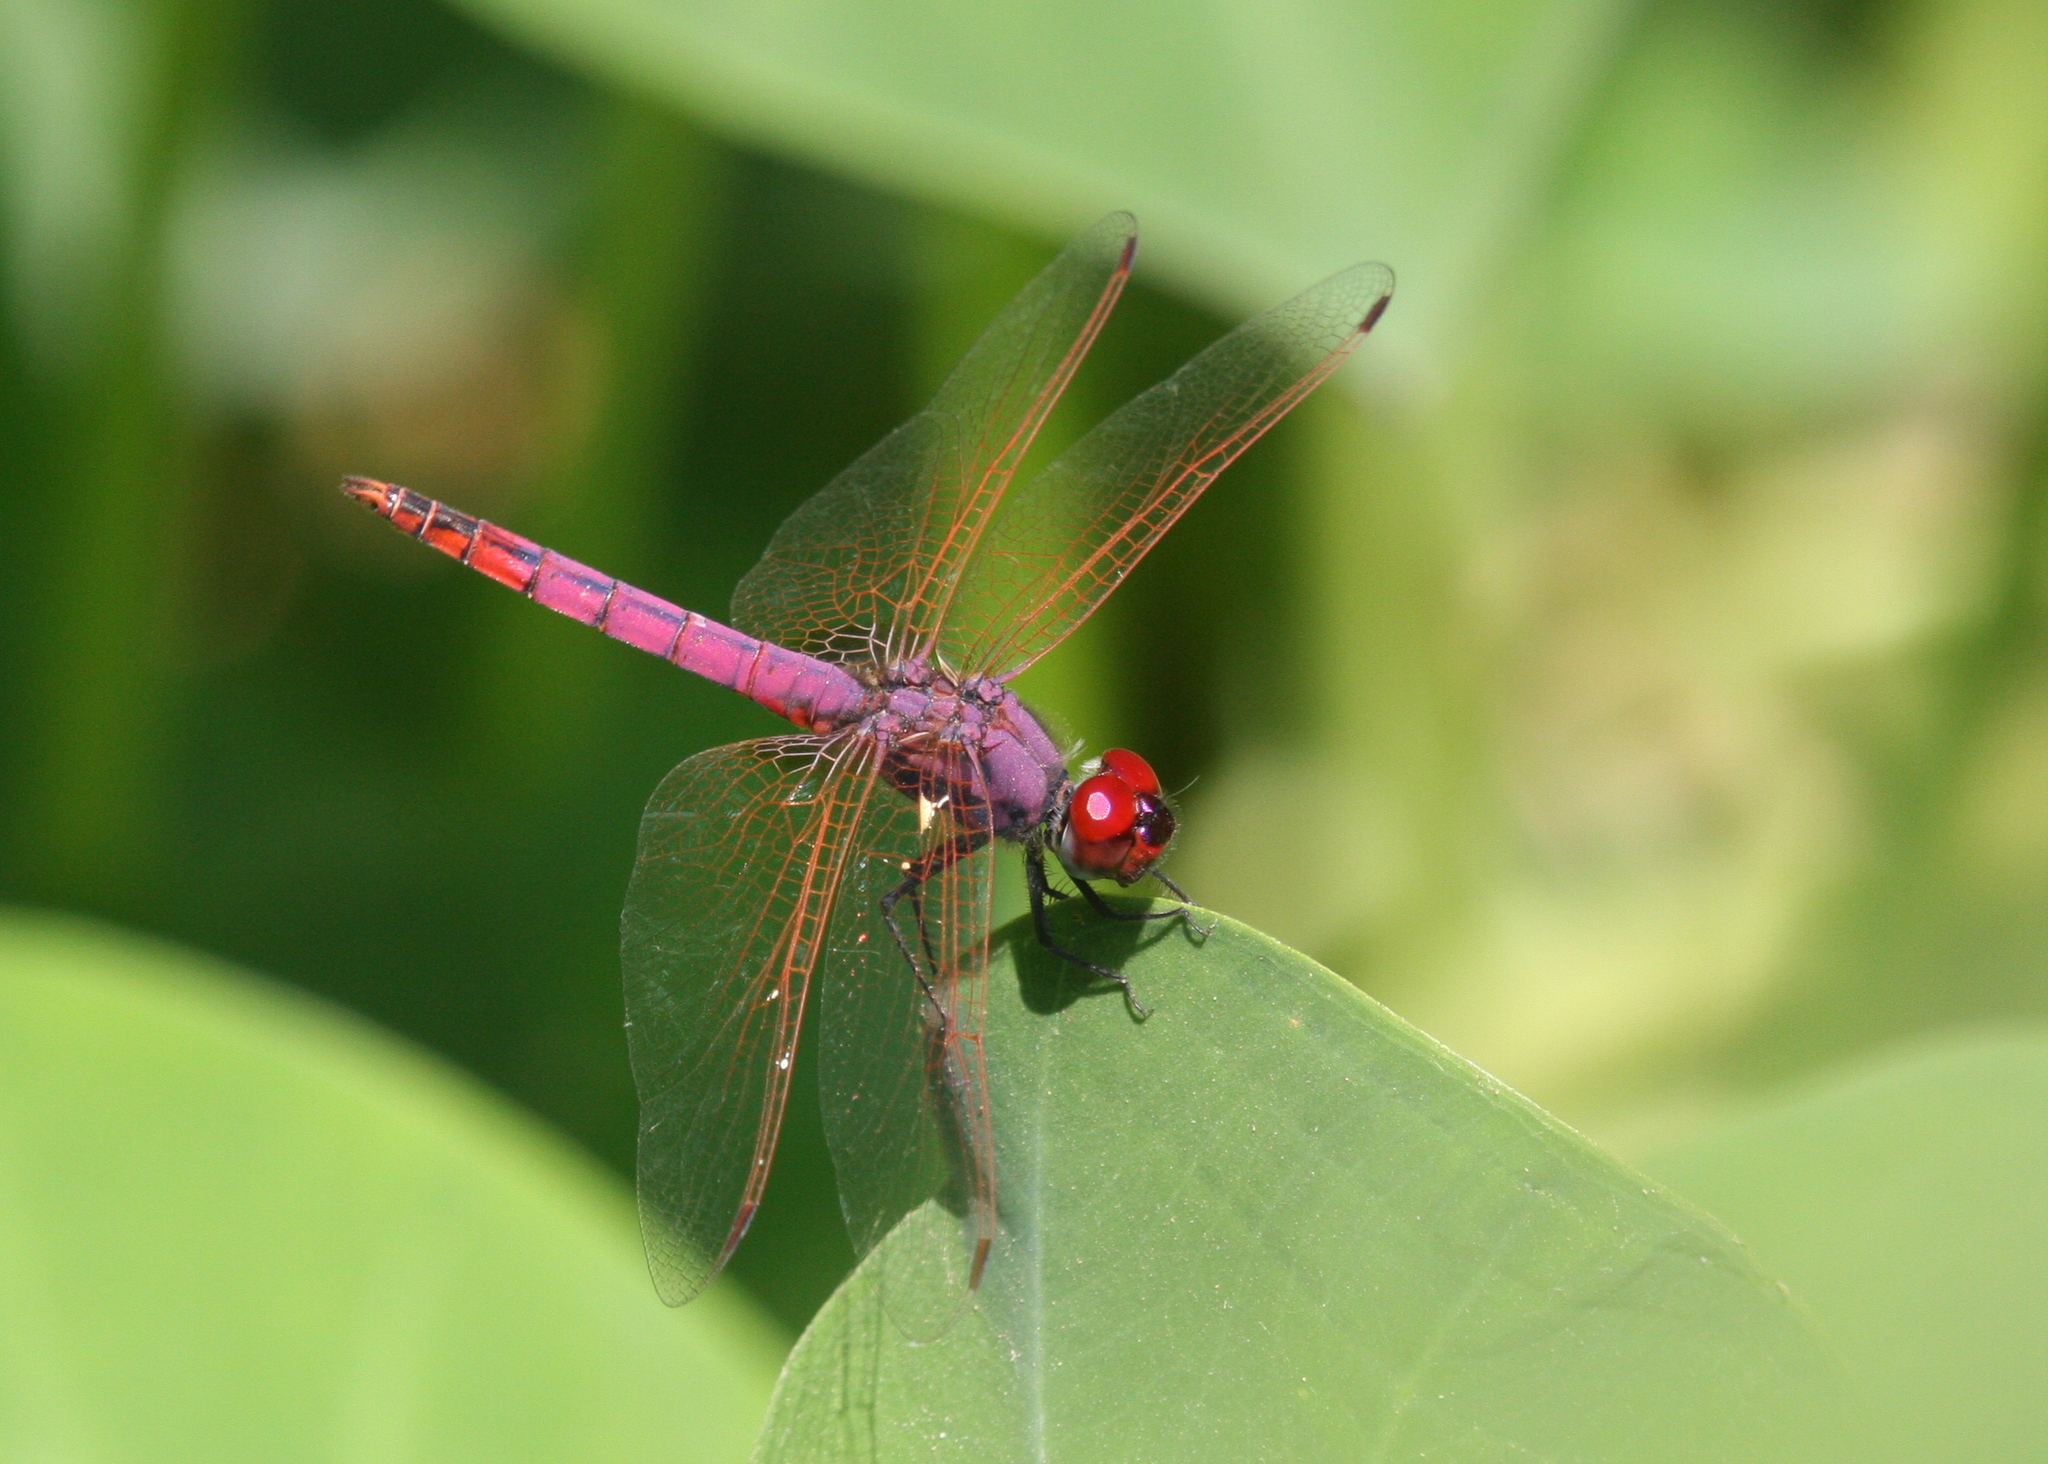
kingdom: Animalia
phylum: Arthropoda
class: Insecta
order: Odonata
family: Libellulidae
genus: Trithemis
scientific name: Trithemis annulata
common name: Violet dropwing
